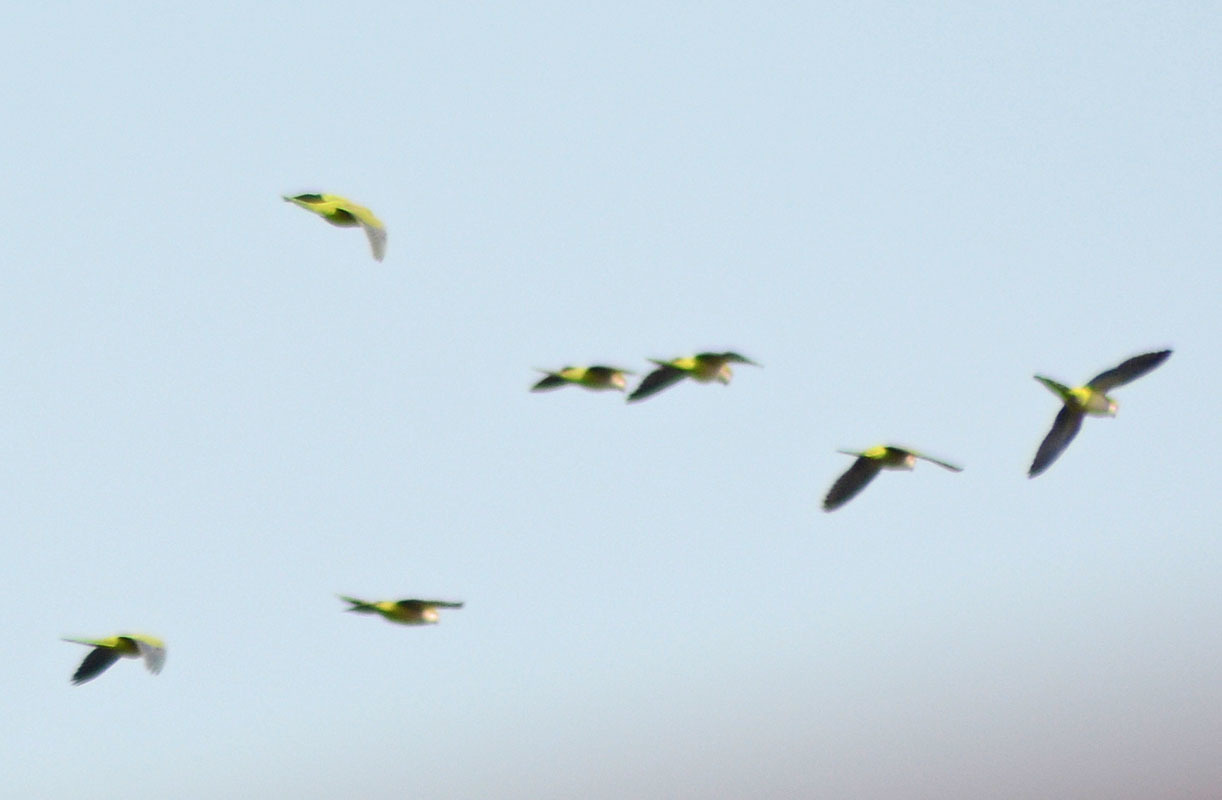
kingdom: Animalia
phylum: Chordata
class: Aves
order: Psittaciformes
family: Psittacidae
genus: Myiopsitta
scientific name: Myiopsitta monachus
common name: Monk parakeet
